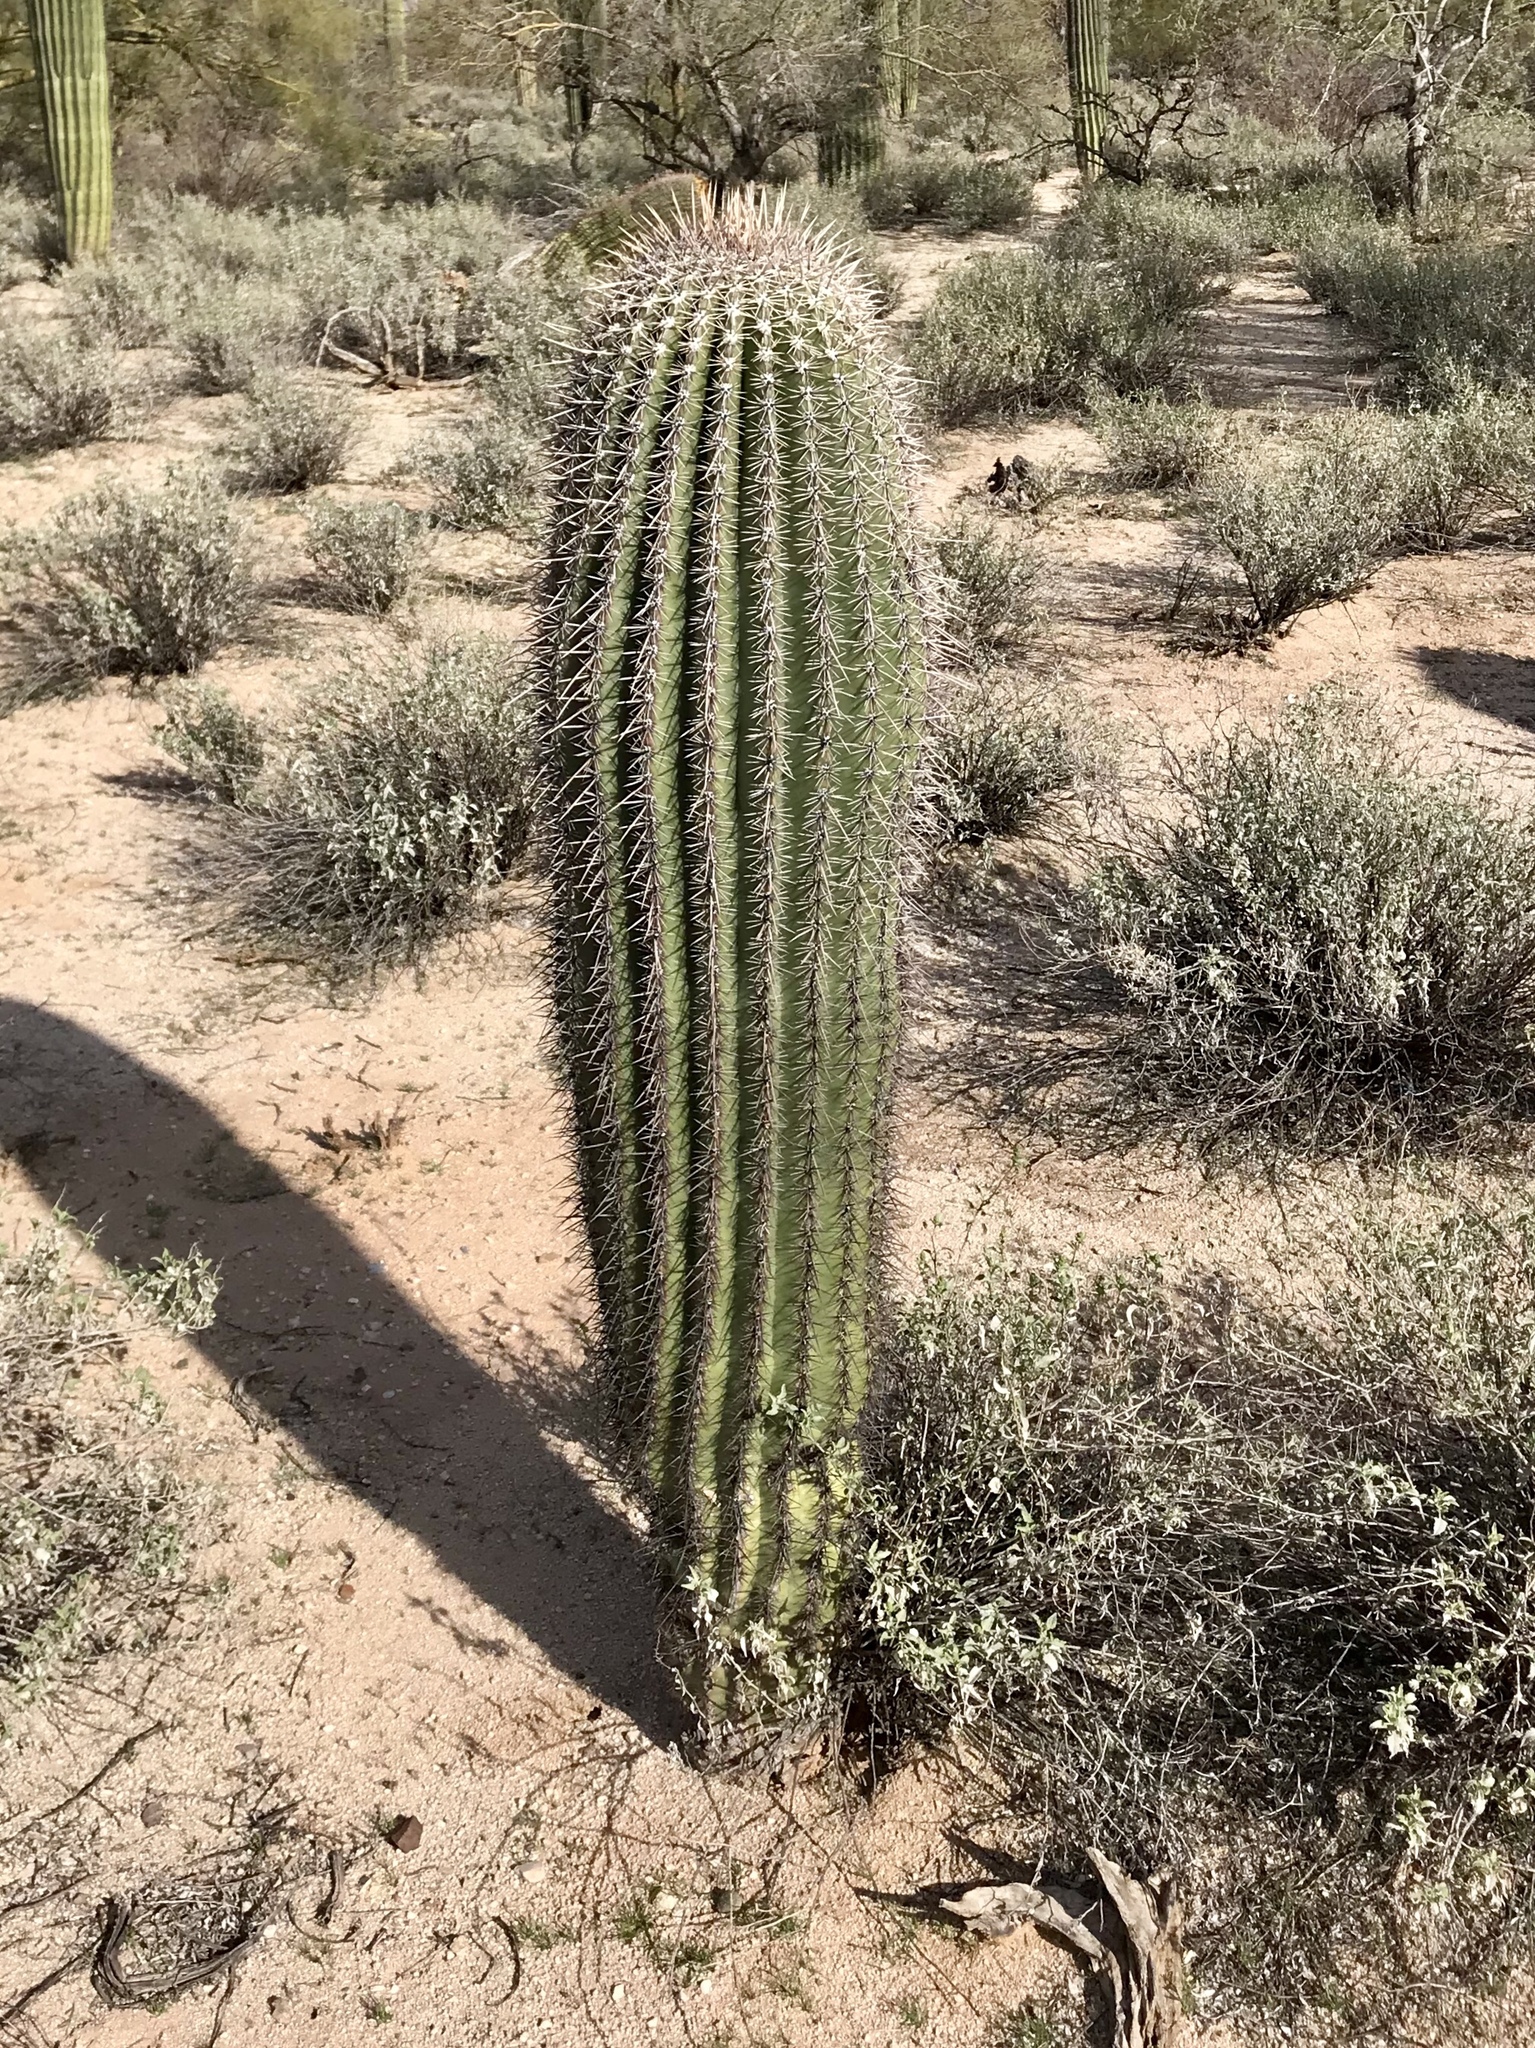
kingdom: Plantae
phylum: Tracheophyta
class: Magnoliopsida
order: Caryophyllales
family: Cactaceae
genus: Carnegiea
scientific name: Carnegiea gigantea
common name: Saguaro
